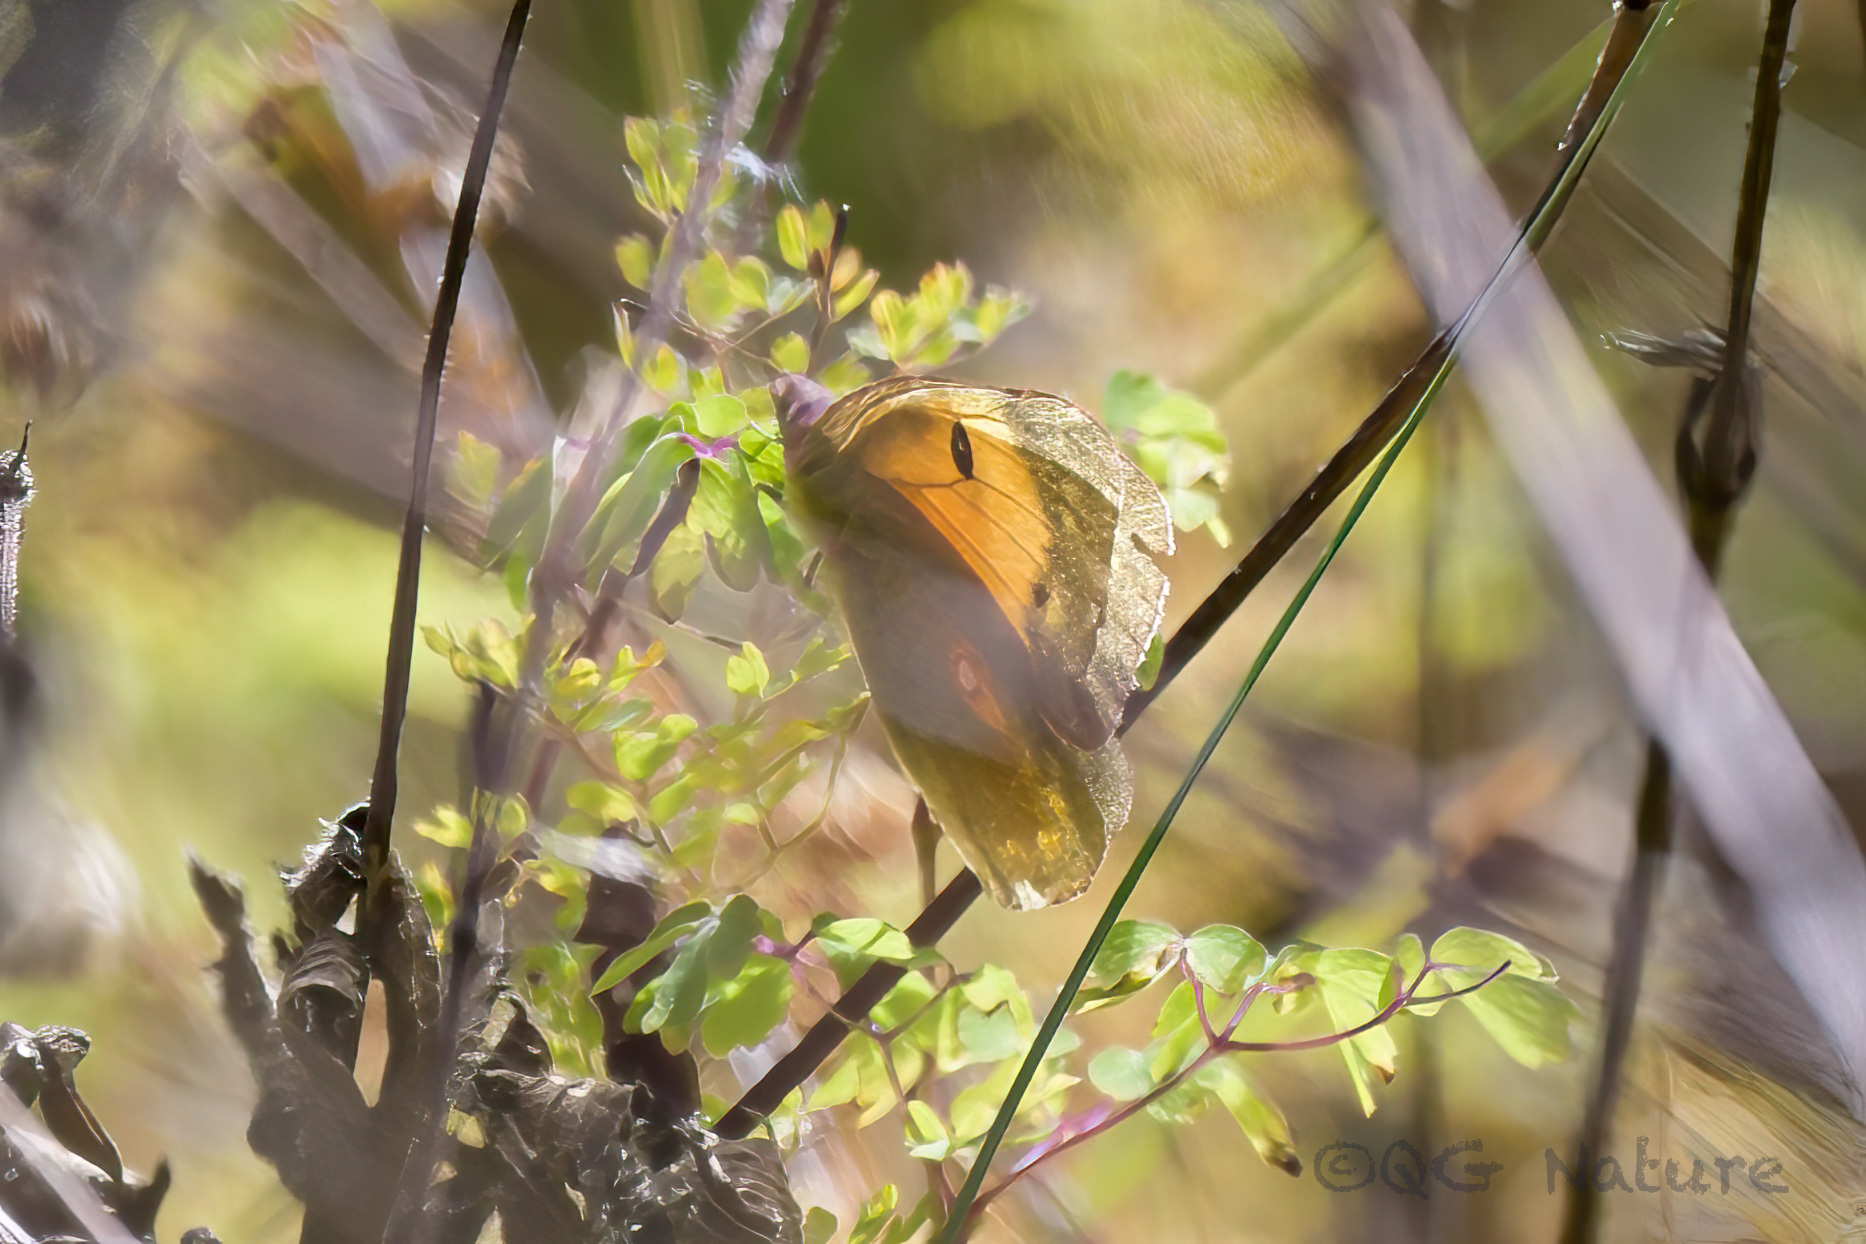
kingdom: Animalia
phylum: Arthropoda
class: Insecta
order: Lepidoptera
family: Pieridae
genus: Colias
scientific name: Colias fieldii
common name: Dark clouded yellow
